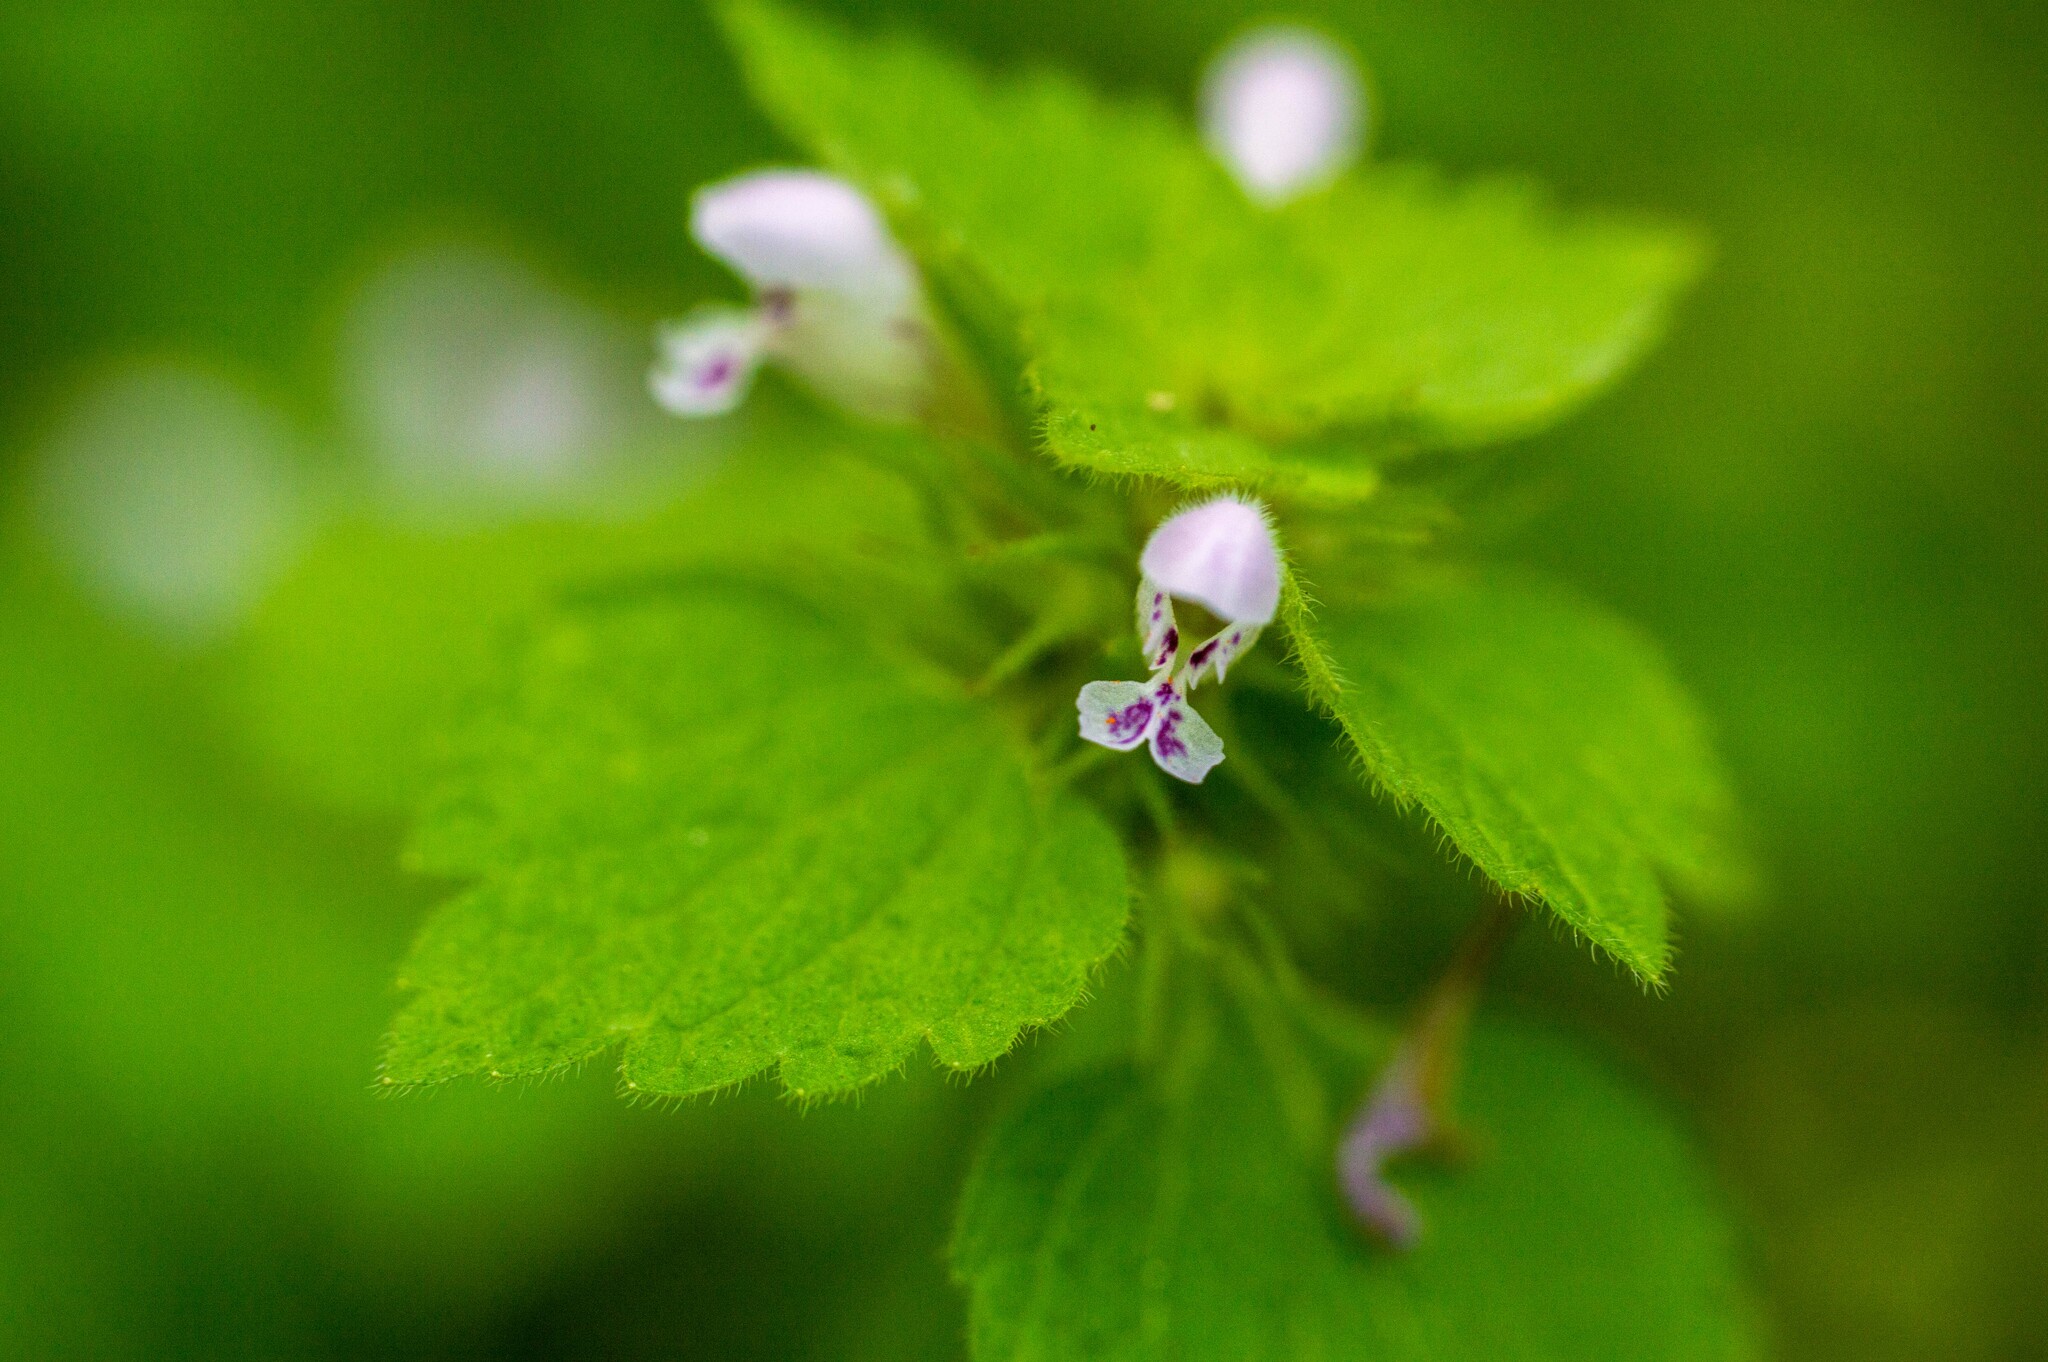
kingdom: Plantae
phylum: Tracheophyta
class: Magnoliopsida
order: Lamiales
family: Lamiaceae
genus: Lamium
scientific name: Lamium purpureum
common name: Red dead-nettle
